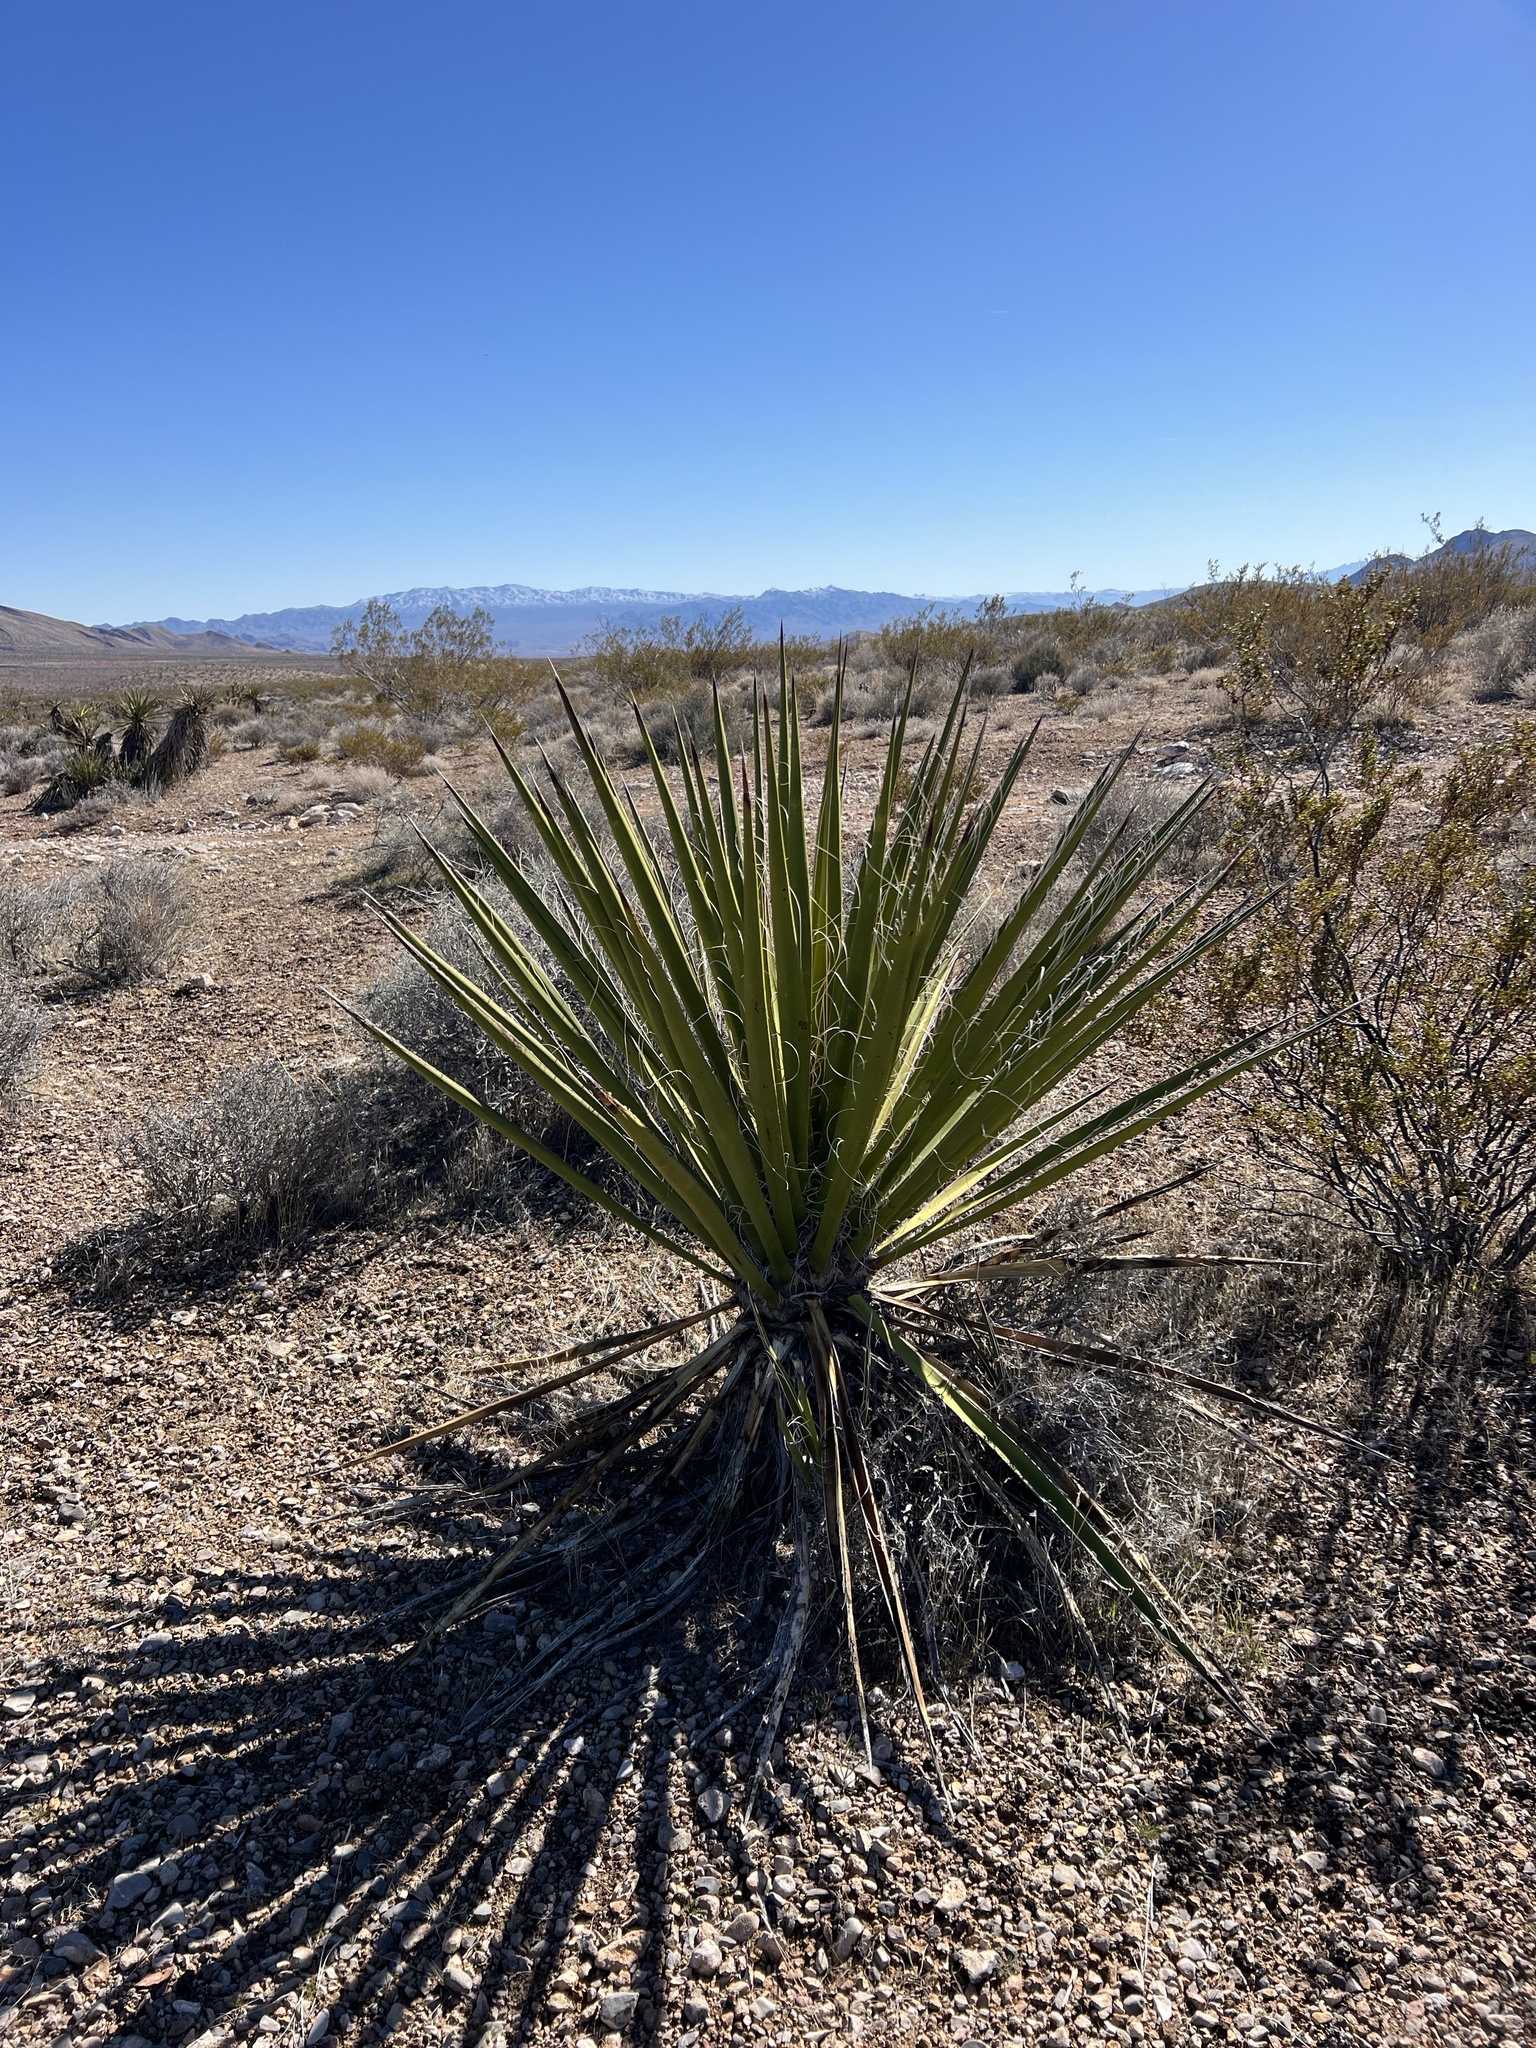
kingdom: Plantae
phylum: Tracheophyta
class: Liliopsida
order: Asparagales
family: Asparagaceae
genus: Yucca
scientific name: Yucca schidigera
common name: Mojave yucca
